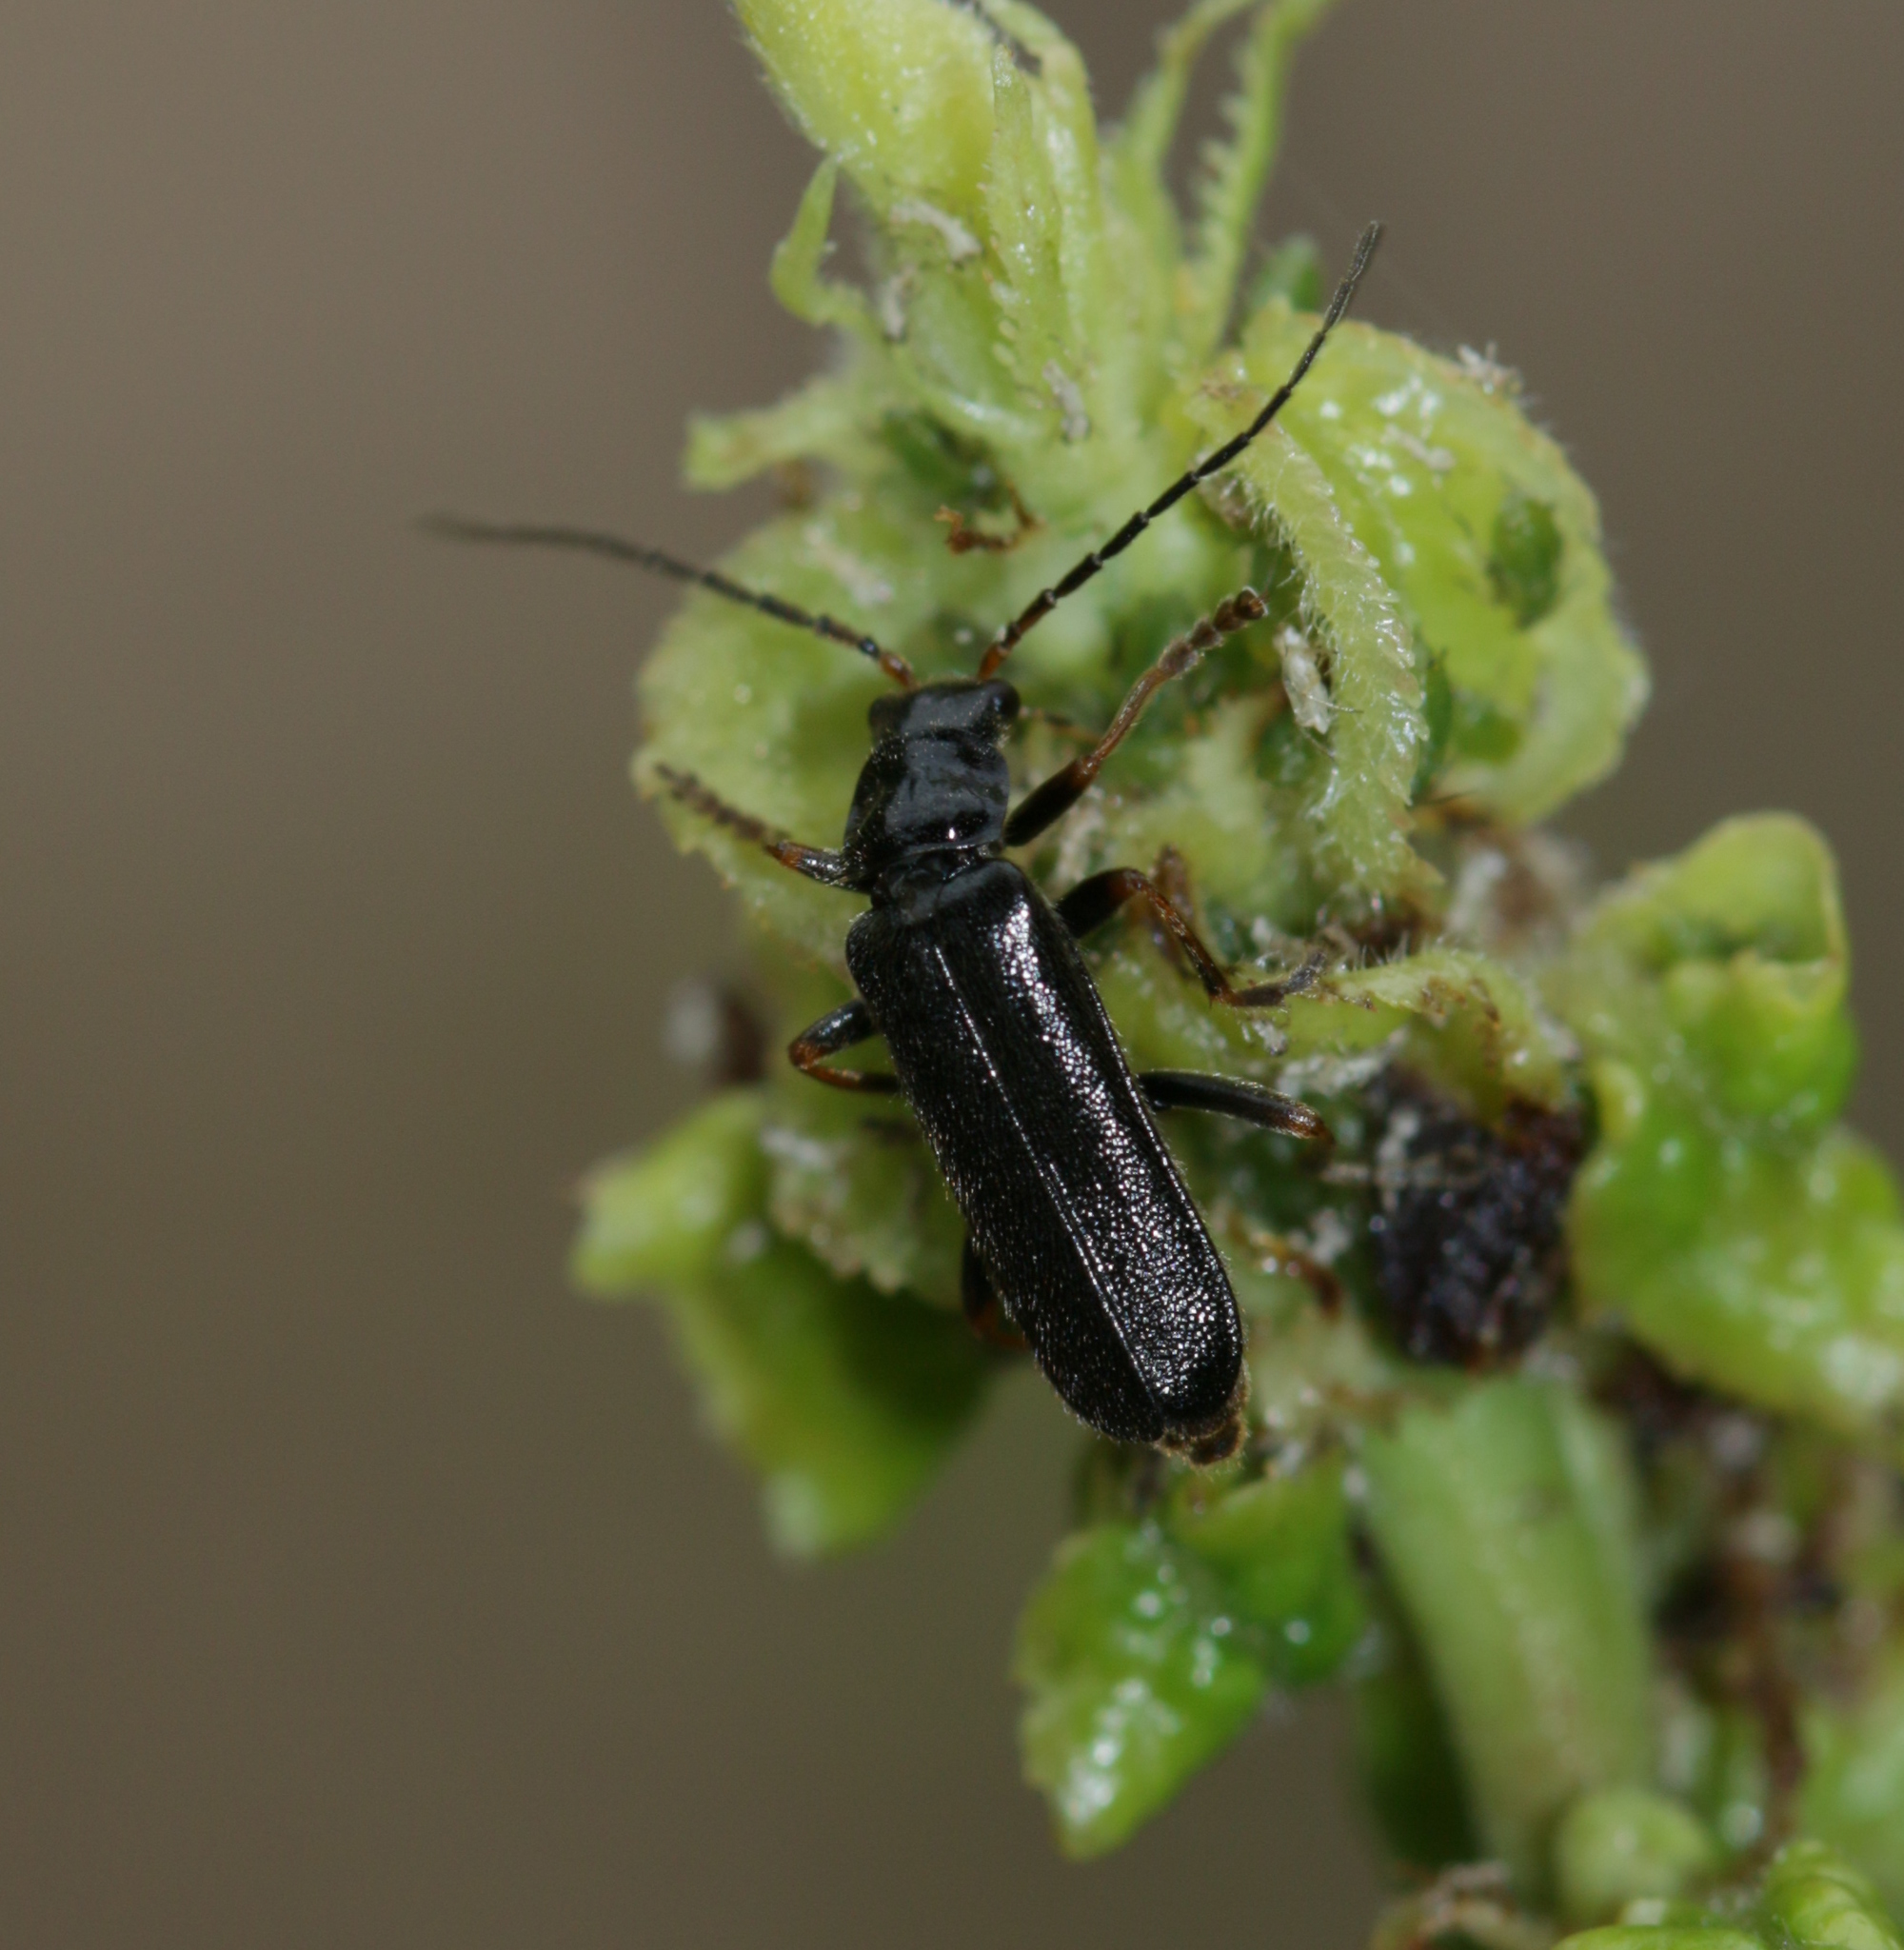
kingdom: Animalia
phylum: Arthropoda
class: Insecta
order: Coleoptera
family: Cantharidae
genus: Cantharis
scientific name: Cantharis flavilabris
